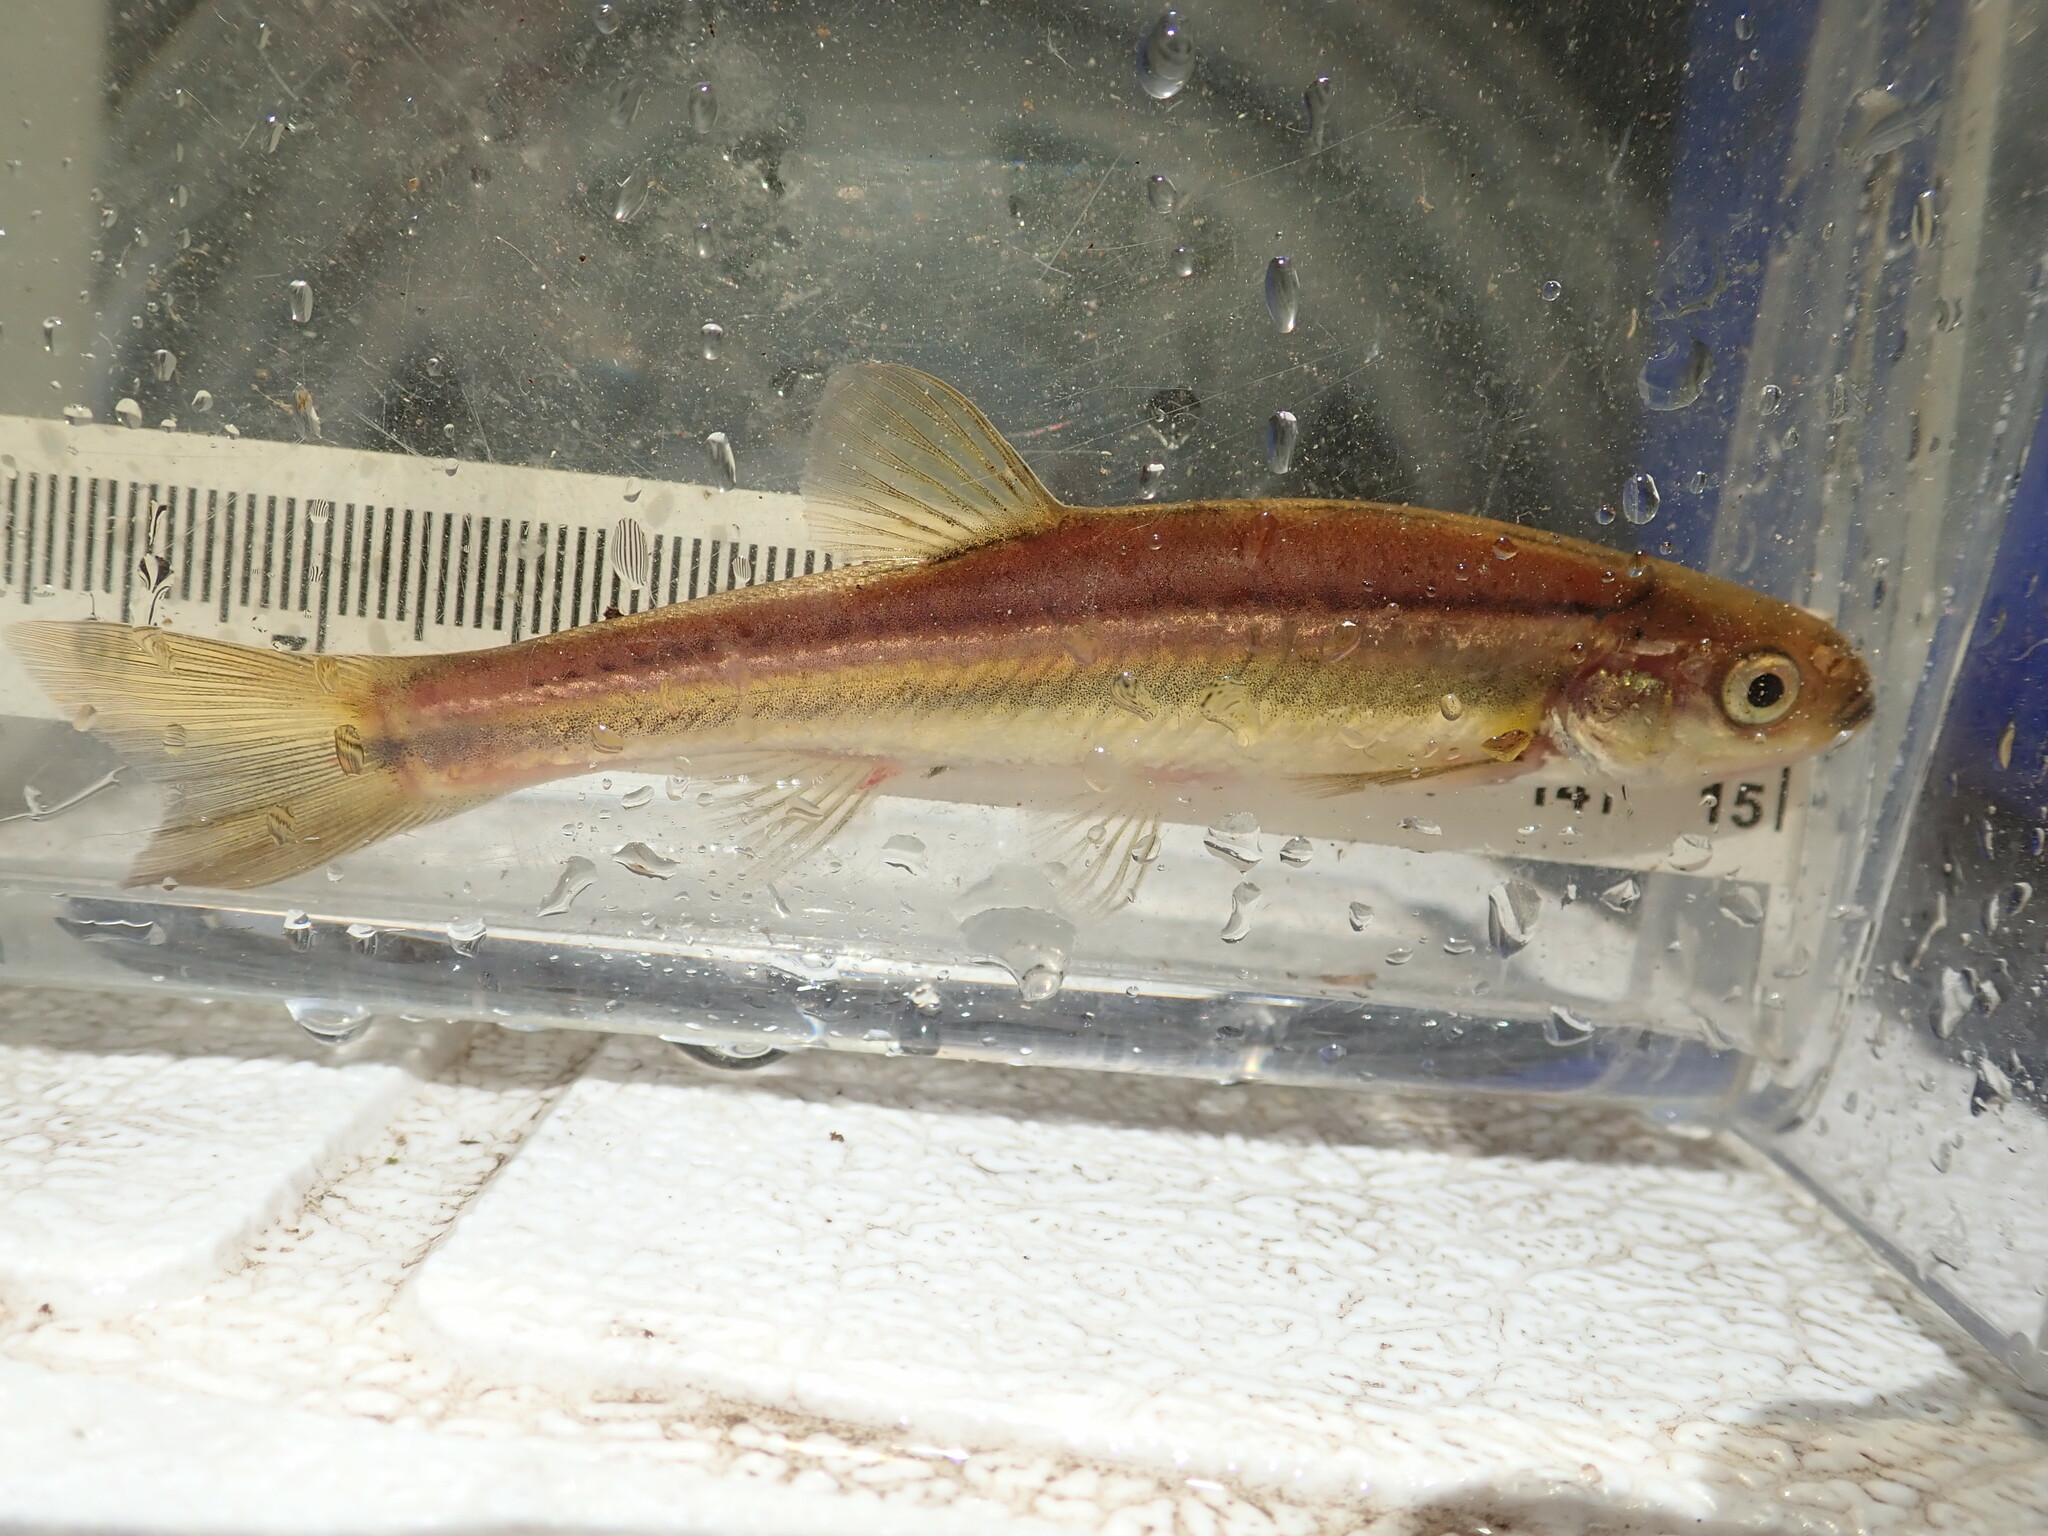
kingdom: Animalia
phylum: Chordata
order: Cypriniformes
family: Cyprinidae
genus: Chrosomus
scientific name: Chrosomus neogaeus
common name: Finescale dace
